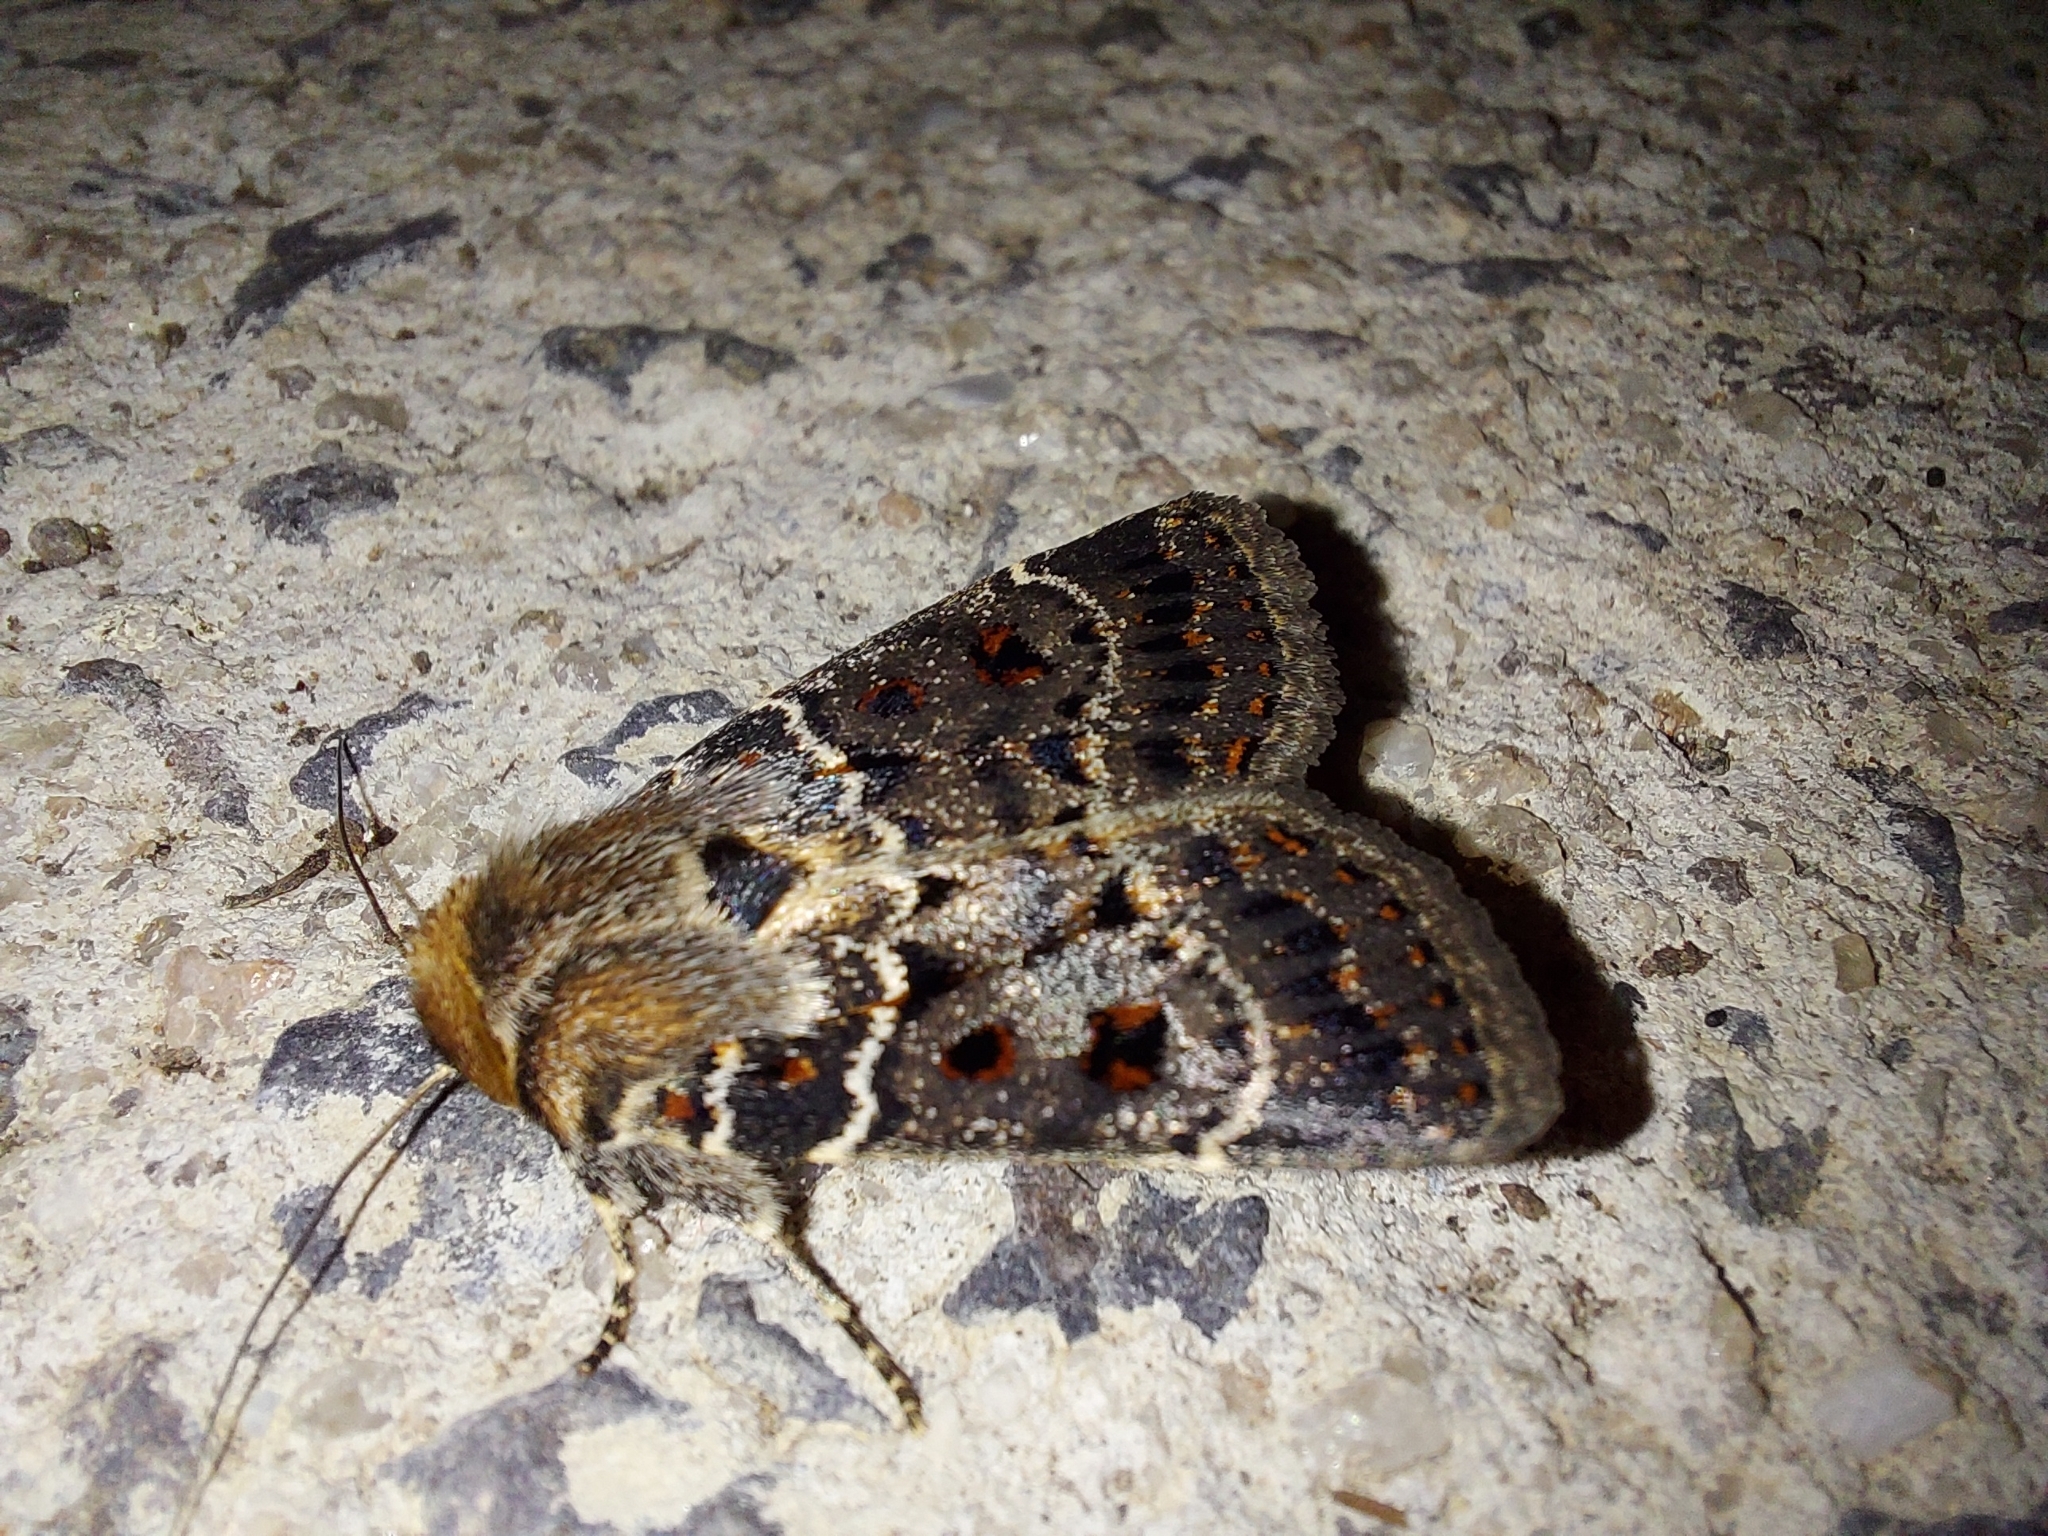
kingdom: Animalia
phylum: Arthropoda
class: Insecta
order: Lepidoptera
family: Noctuidae
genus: Proteuxoa
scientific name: Proteuxoa sanguinipuncta
